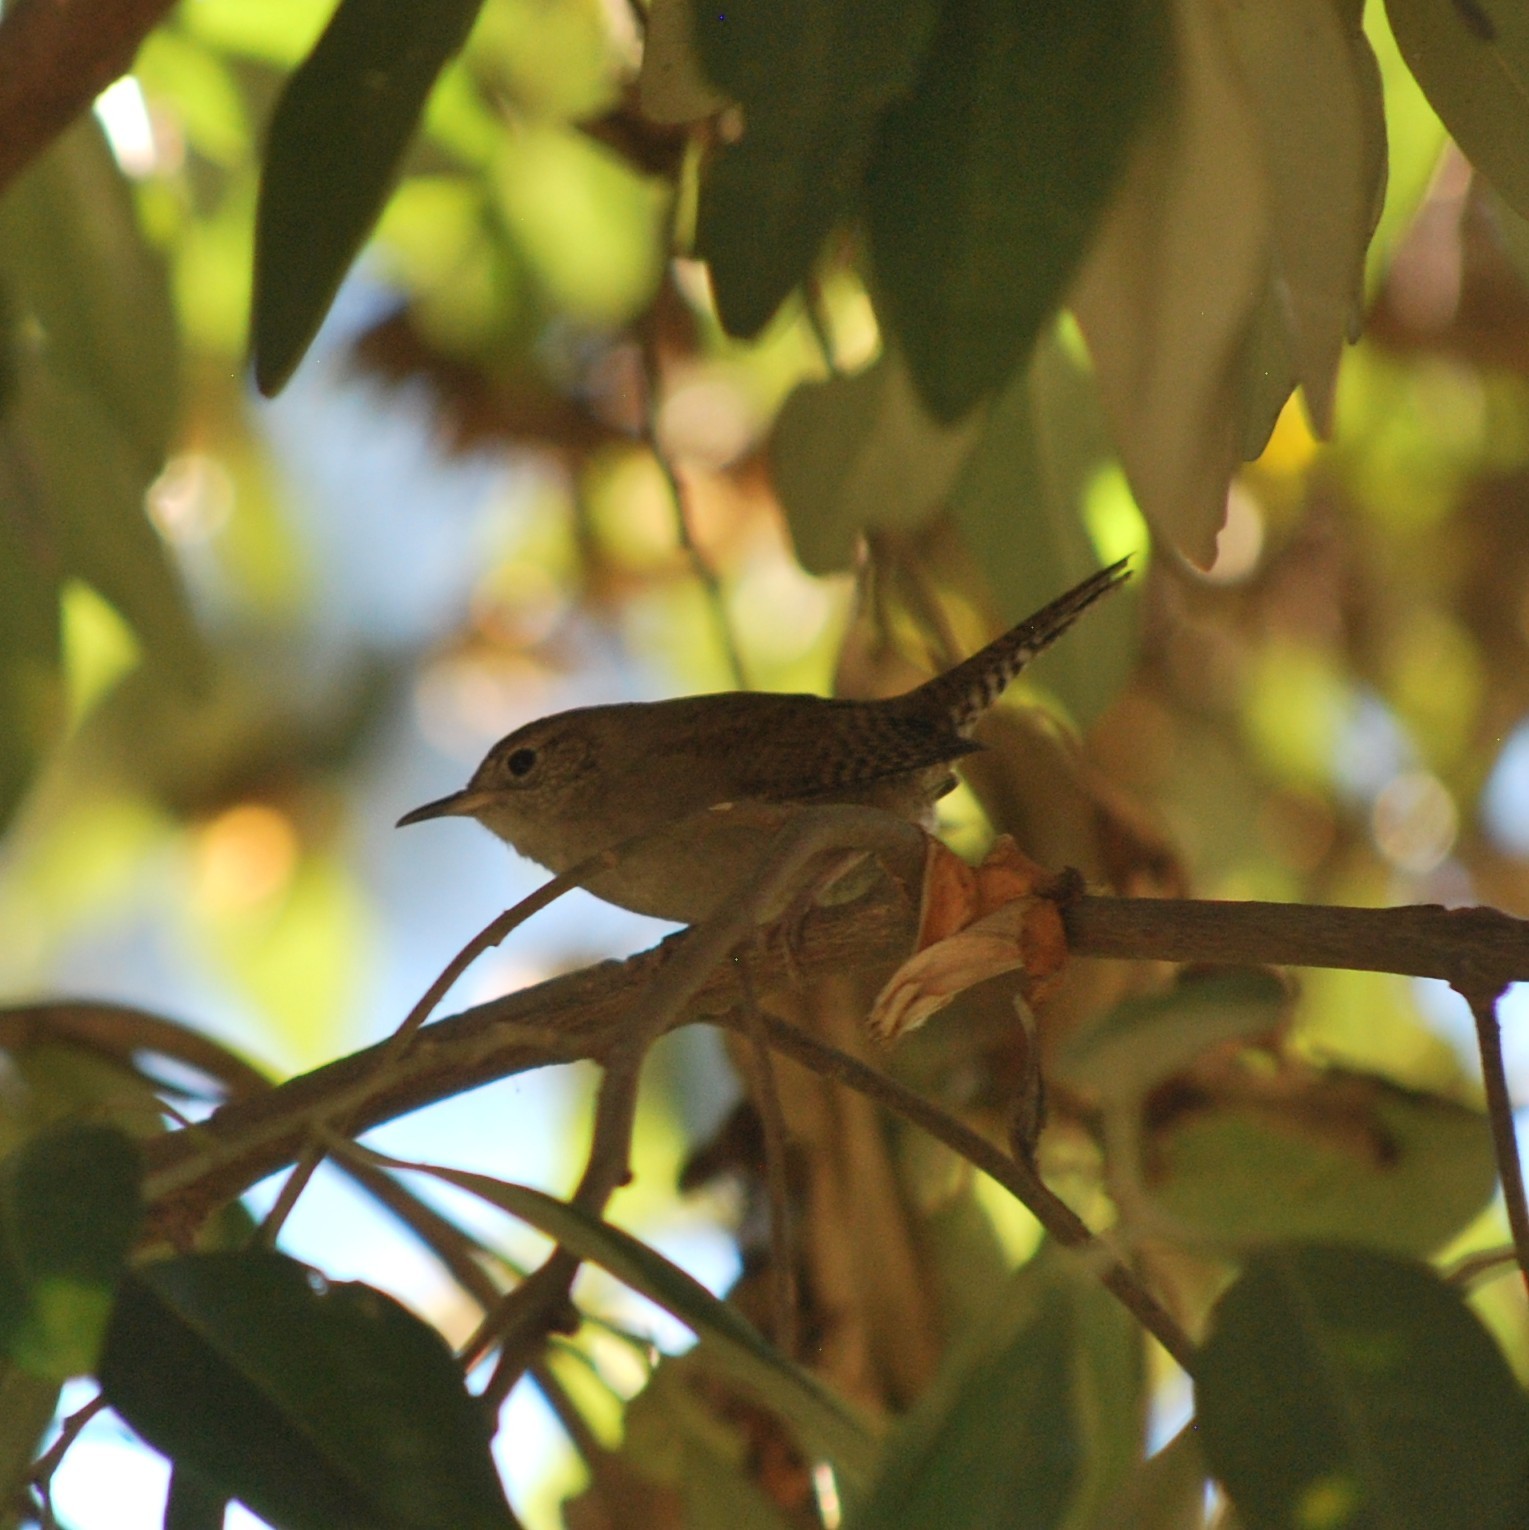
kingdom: Animalia
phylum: Chordata
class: Aves
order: Passeriformes
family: Troglodytidae
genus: Troglodytes
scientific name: Troglodytes aedon
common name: House wren
